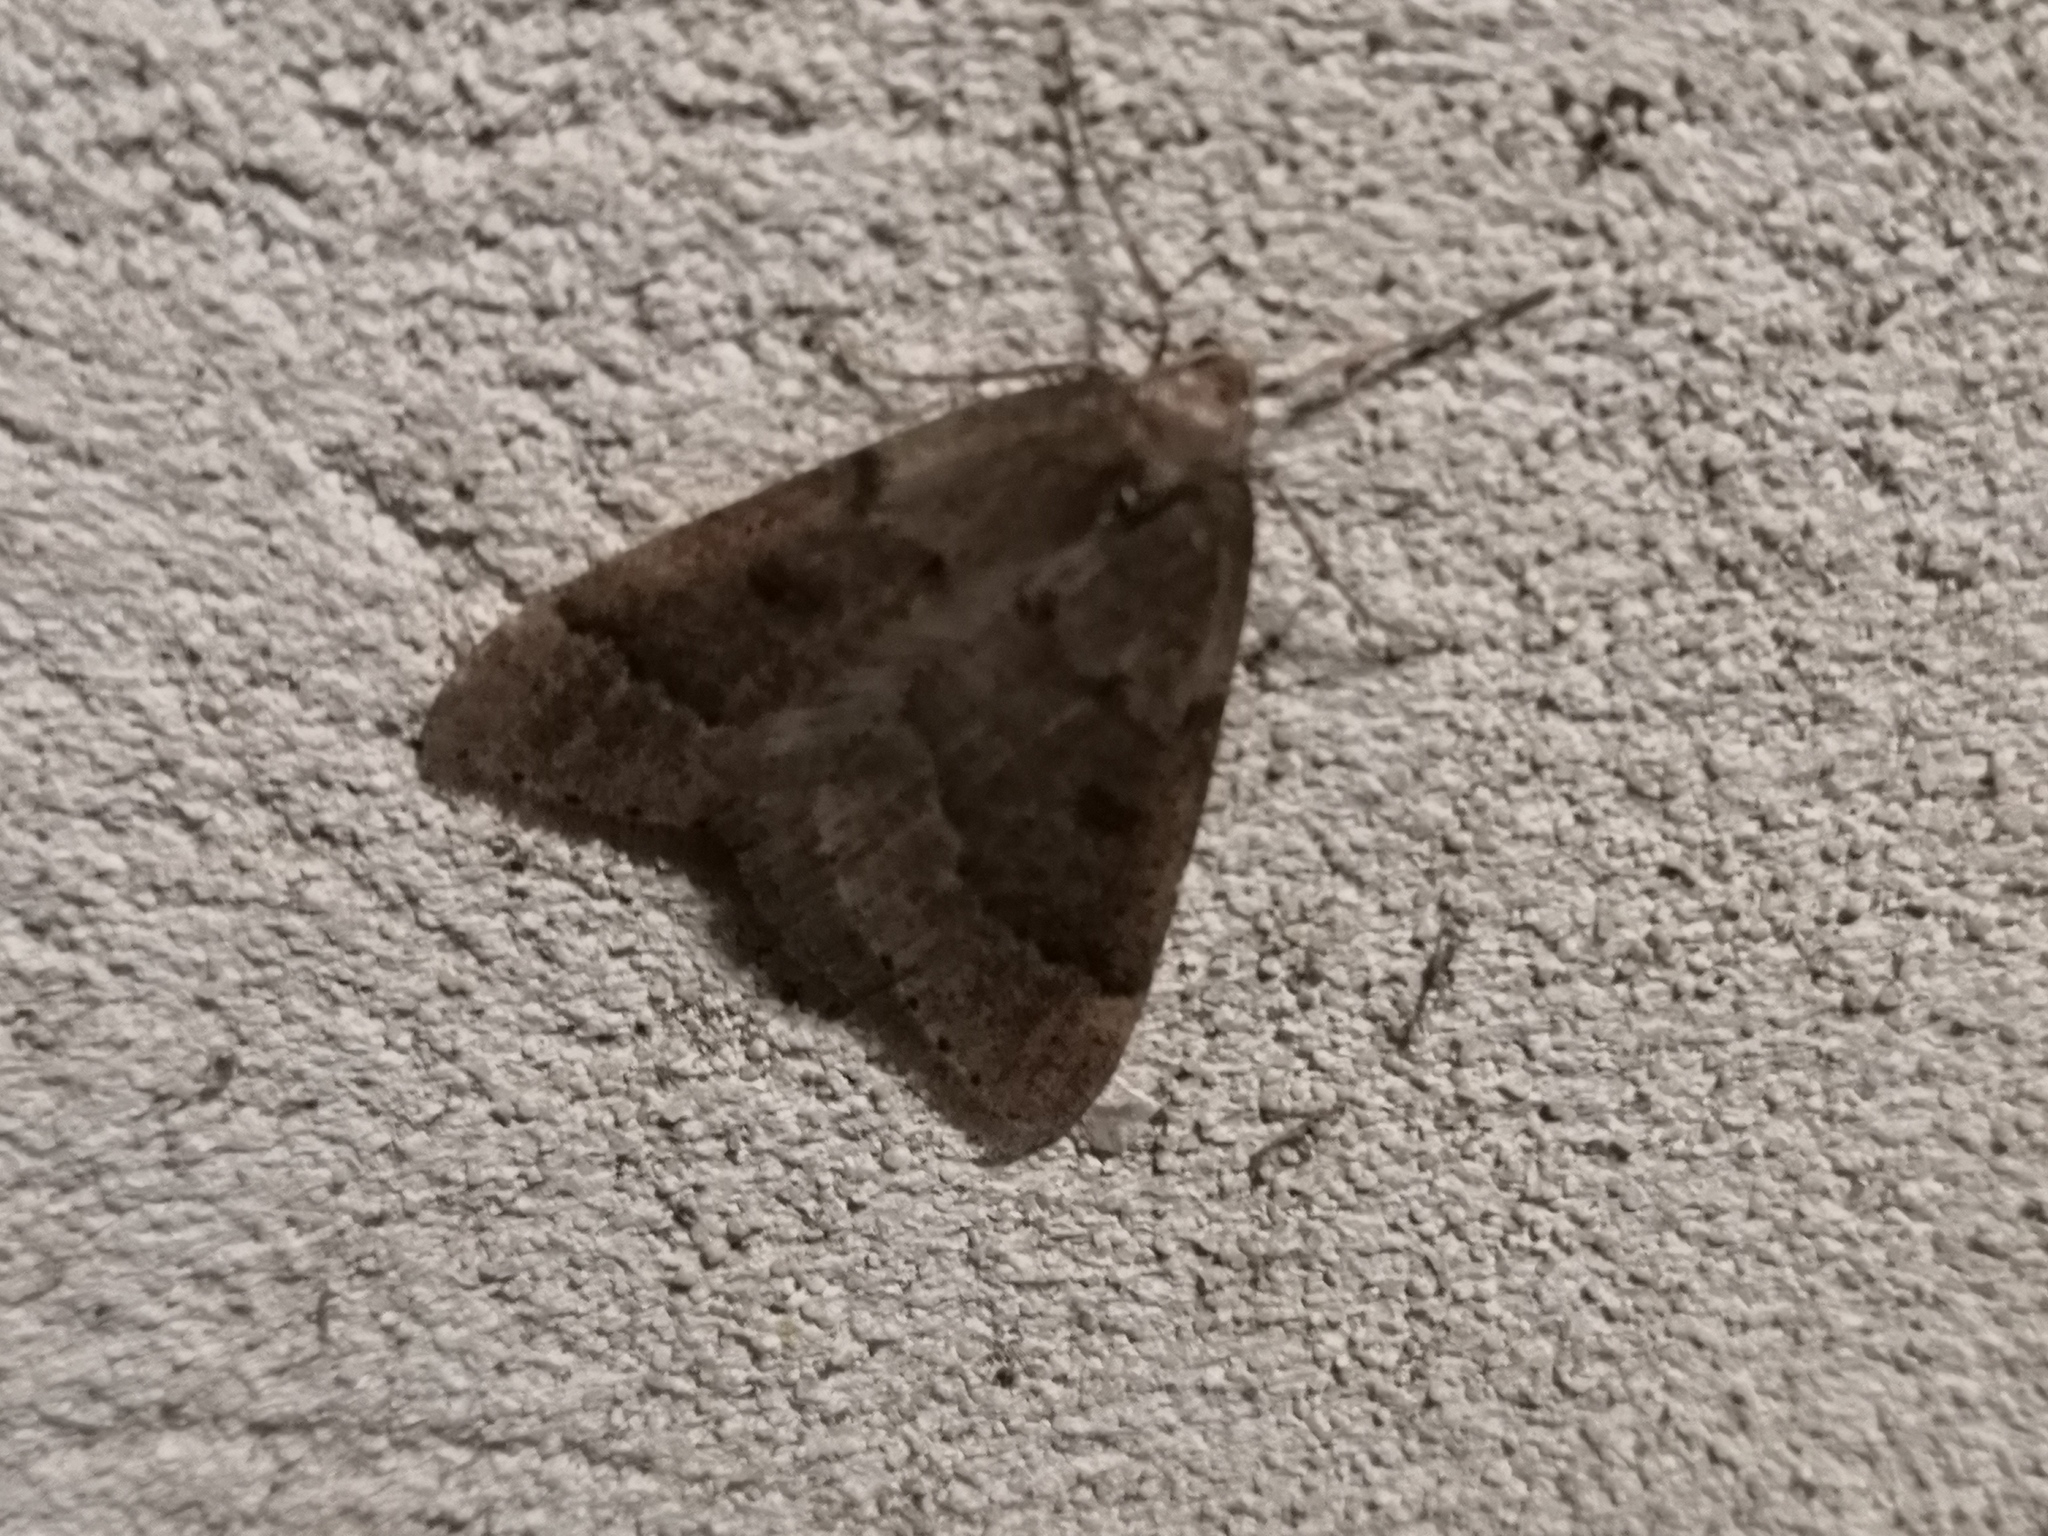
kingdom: Animalia
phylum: Arthropoda
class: Insecta
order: Lepidoptera
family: Geometridae
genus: Theria
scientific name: Theria rupicapraria
